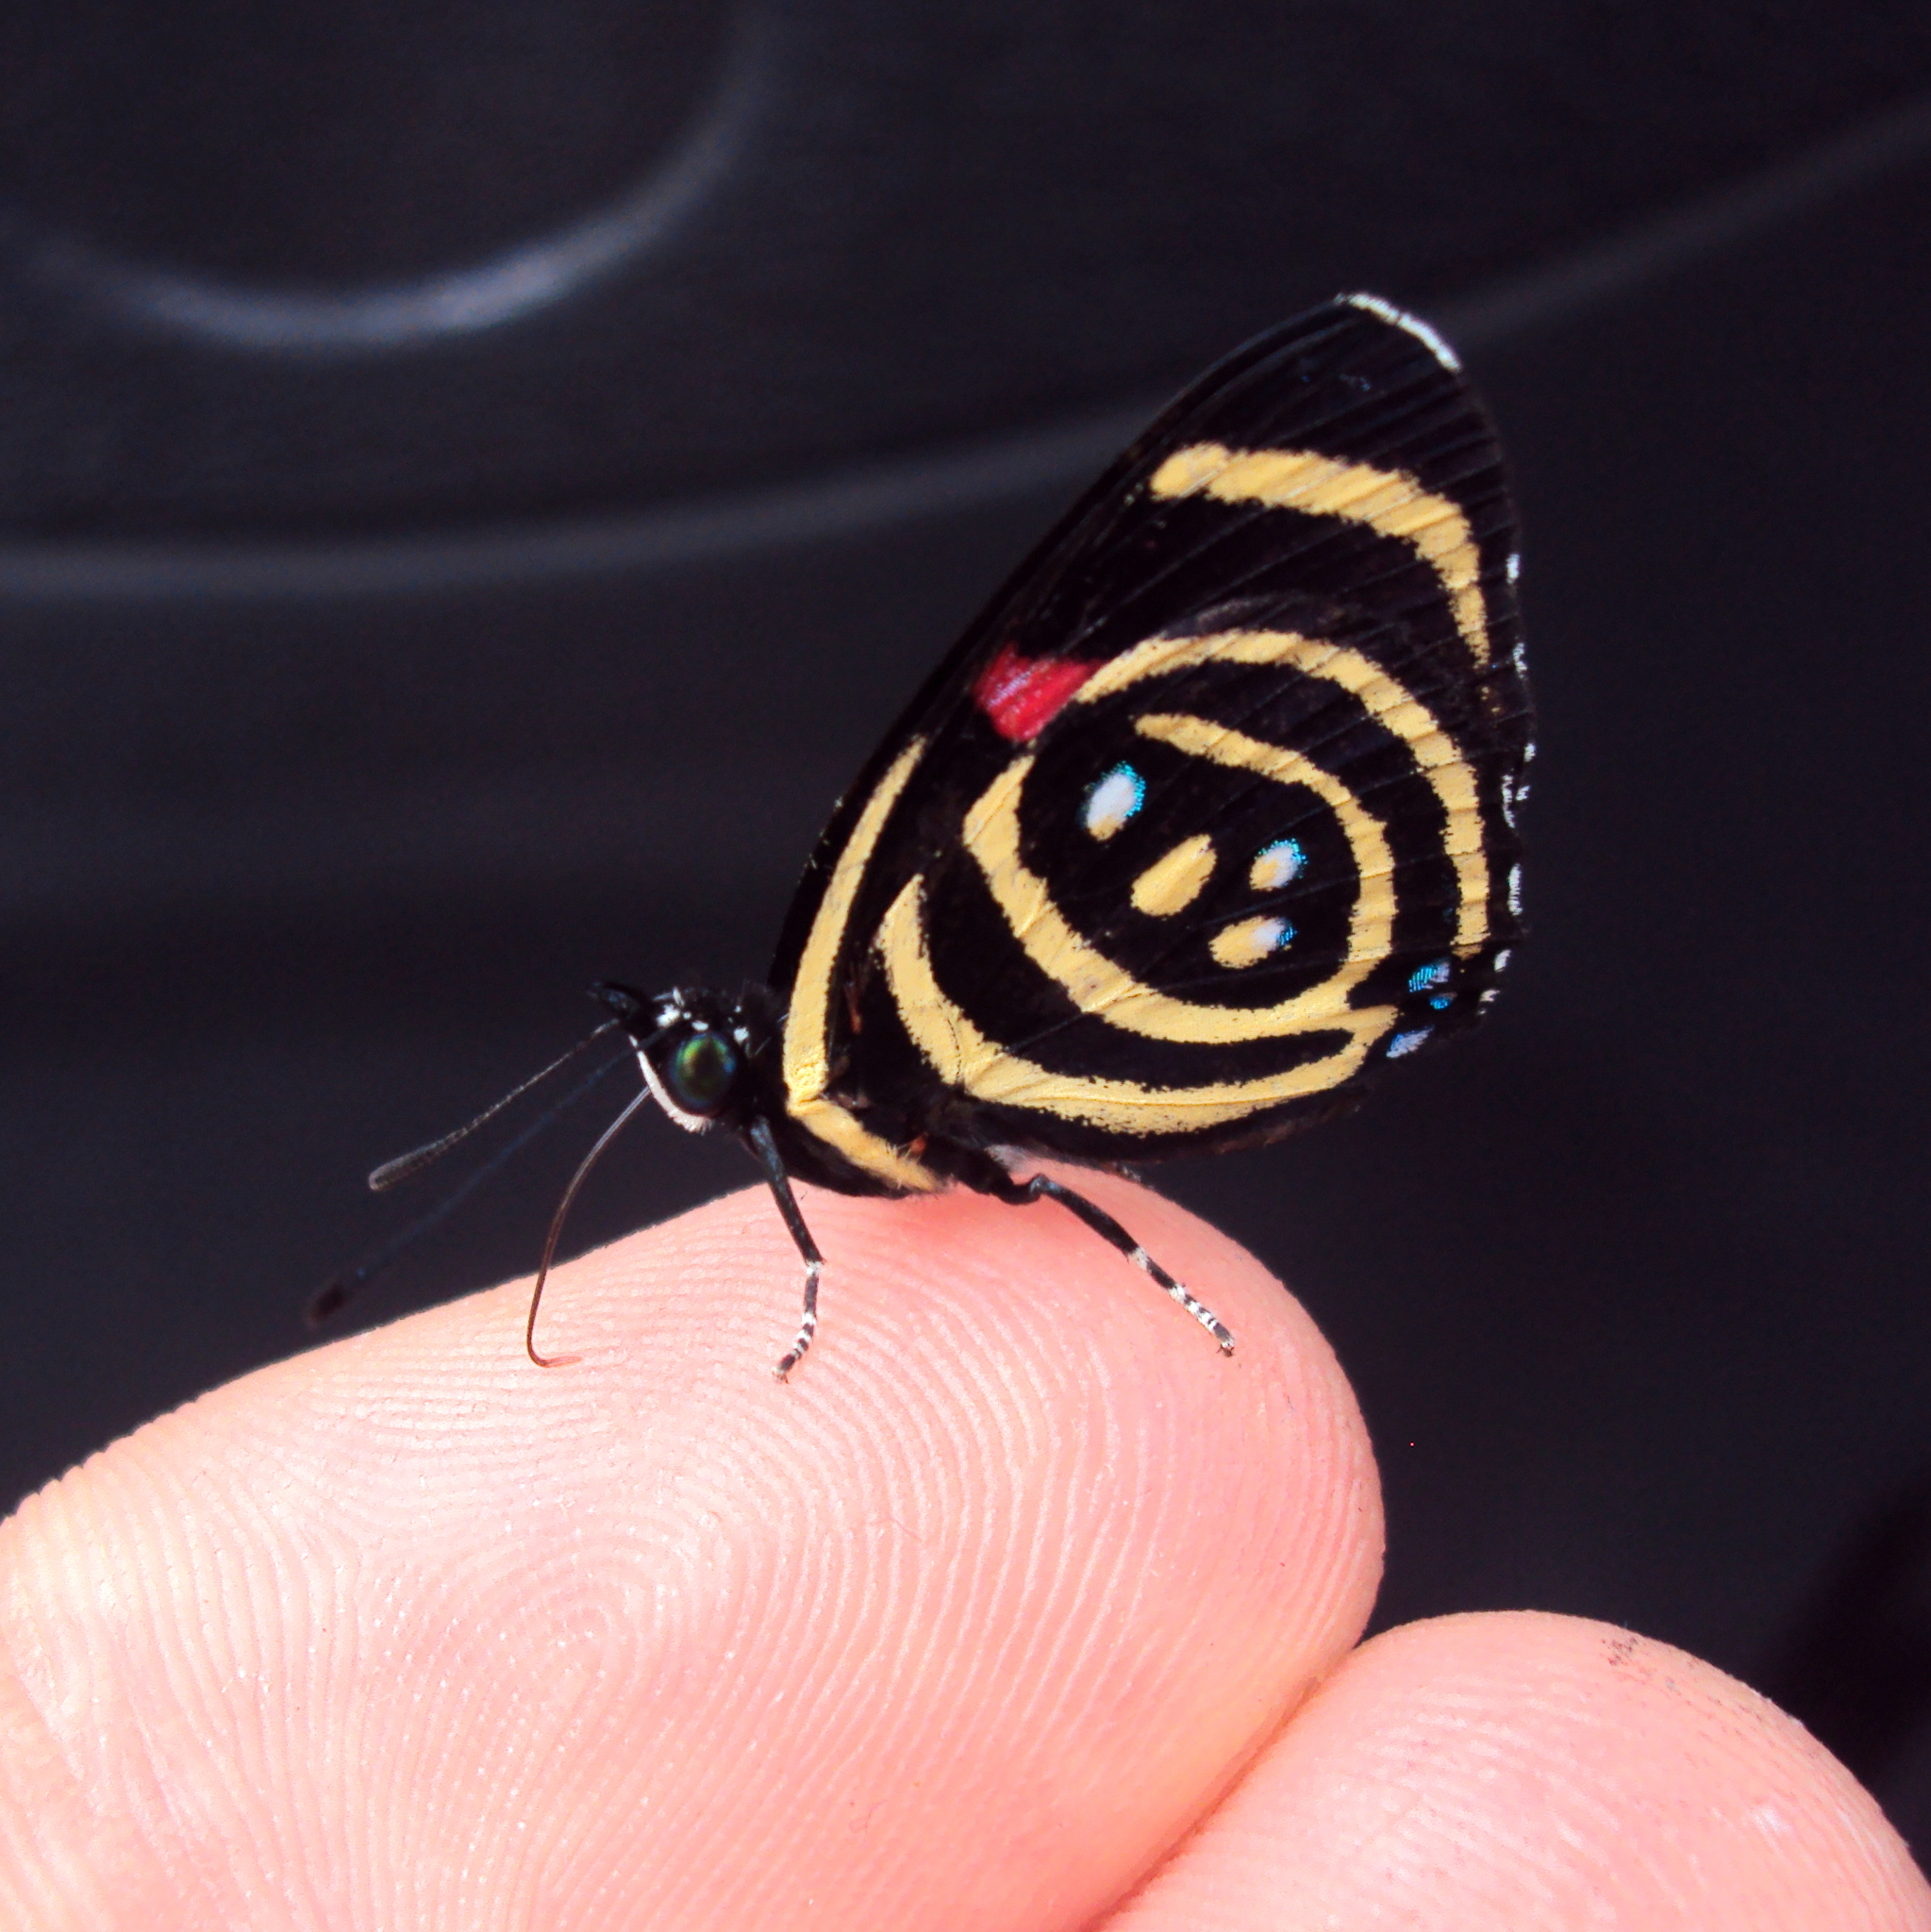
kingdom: Animalia
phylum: Arthropoda
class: Insecta
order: Lepidoptera
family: Nymphalidae
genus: Catagramma
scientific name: Catagramma Callicore hydaspes
